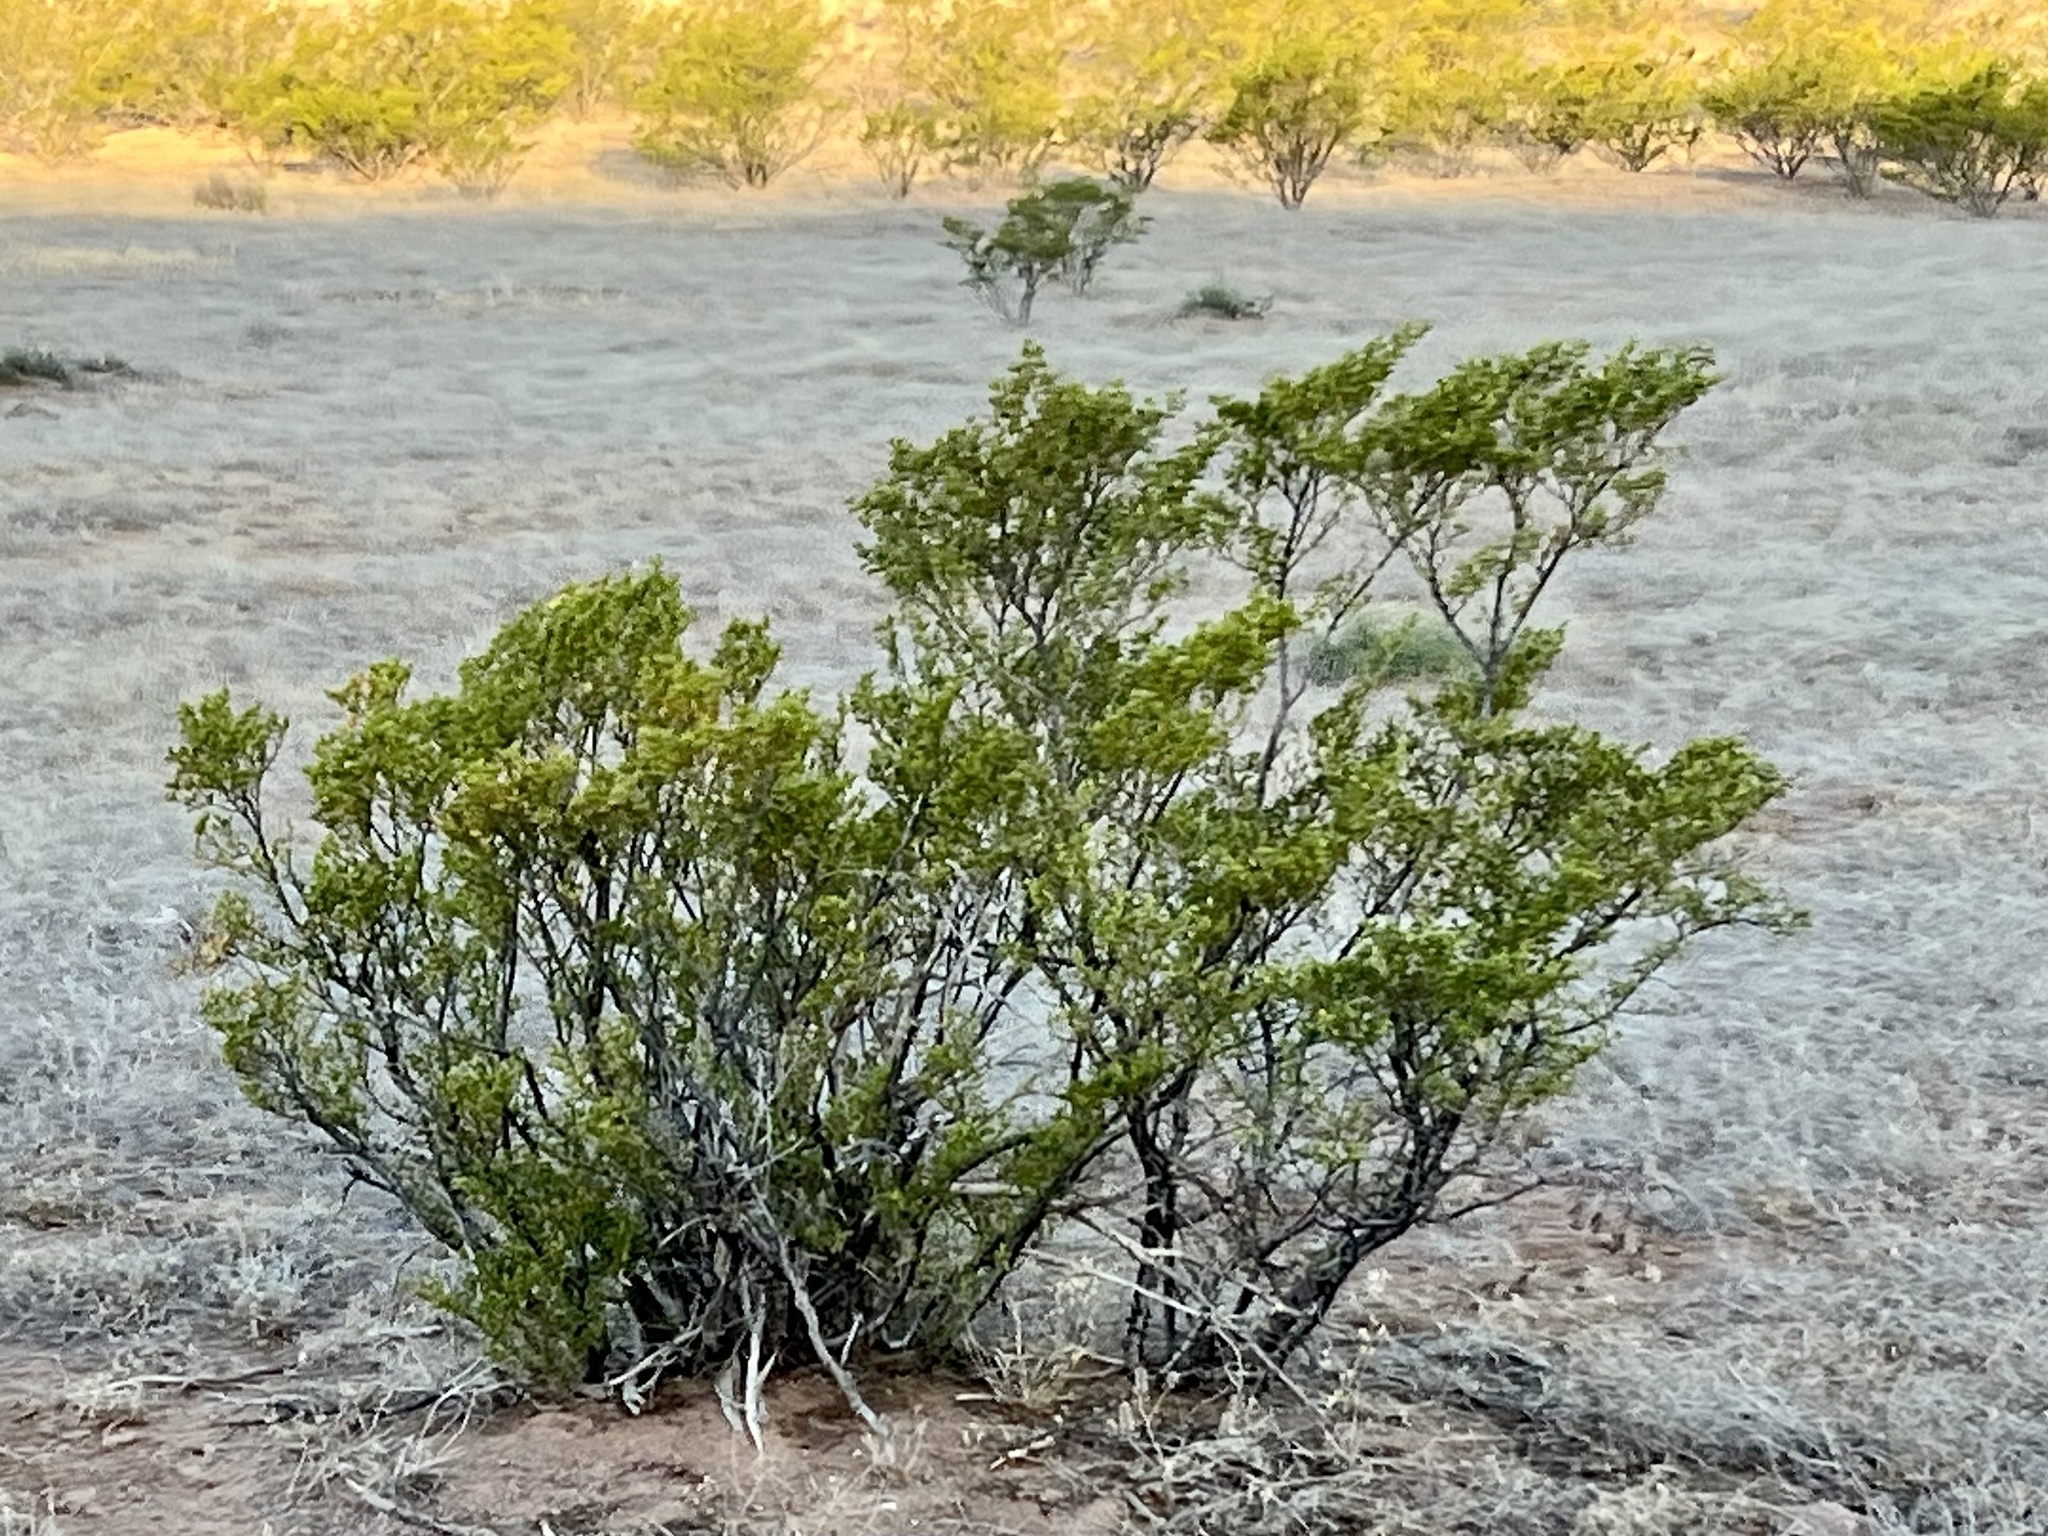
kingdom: Plantae
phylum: Tracheophyta
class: Magnoliopsida
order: Zygophyllales
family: Zygophyllaceae
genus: Larrea
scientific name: Larrea tridentata
